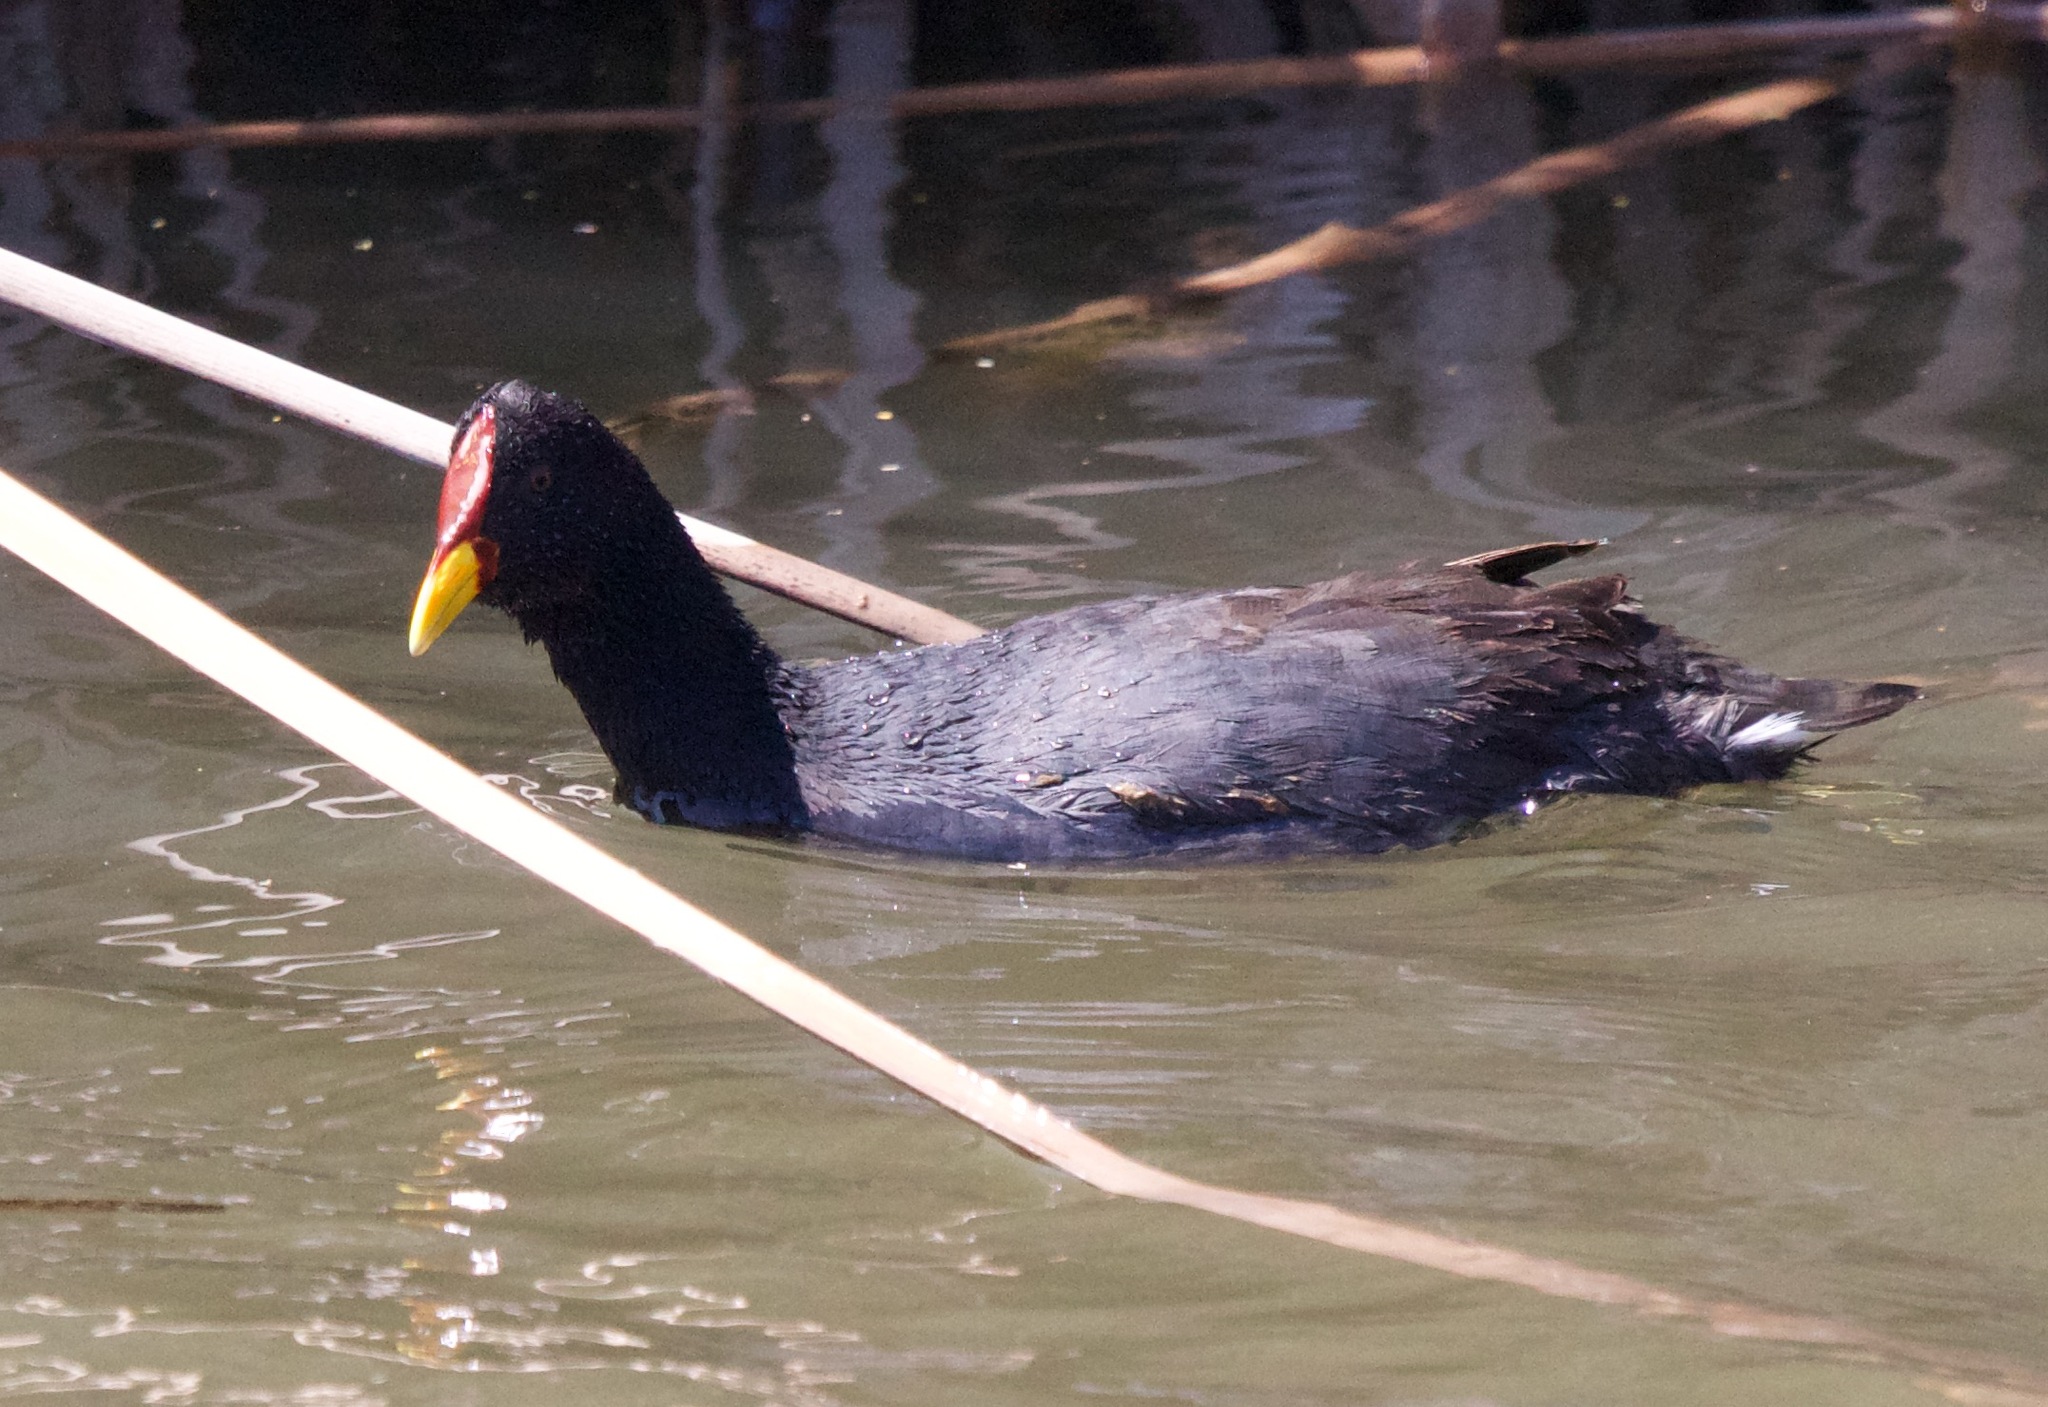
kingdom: Animalia
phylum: Chordata
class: Aves
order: Gruiformes
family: Rallidae
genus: Fulica
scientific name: Fulica rufifrons
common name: Red-fronted coot
